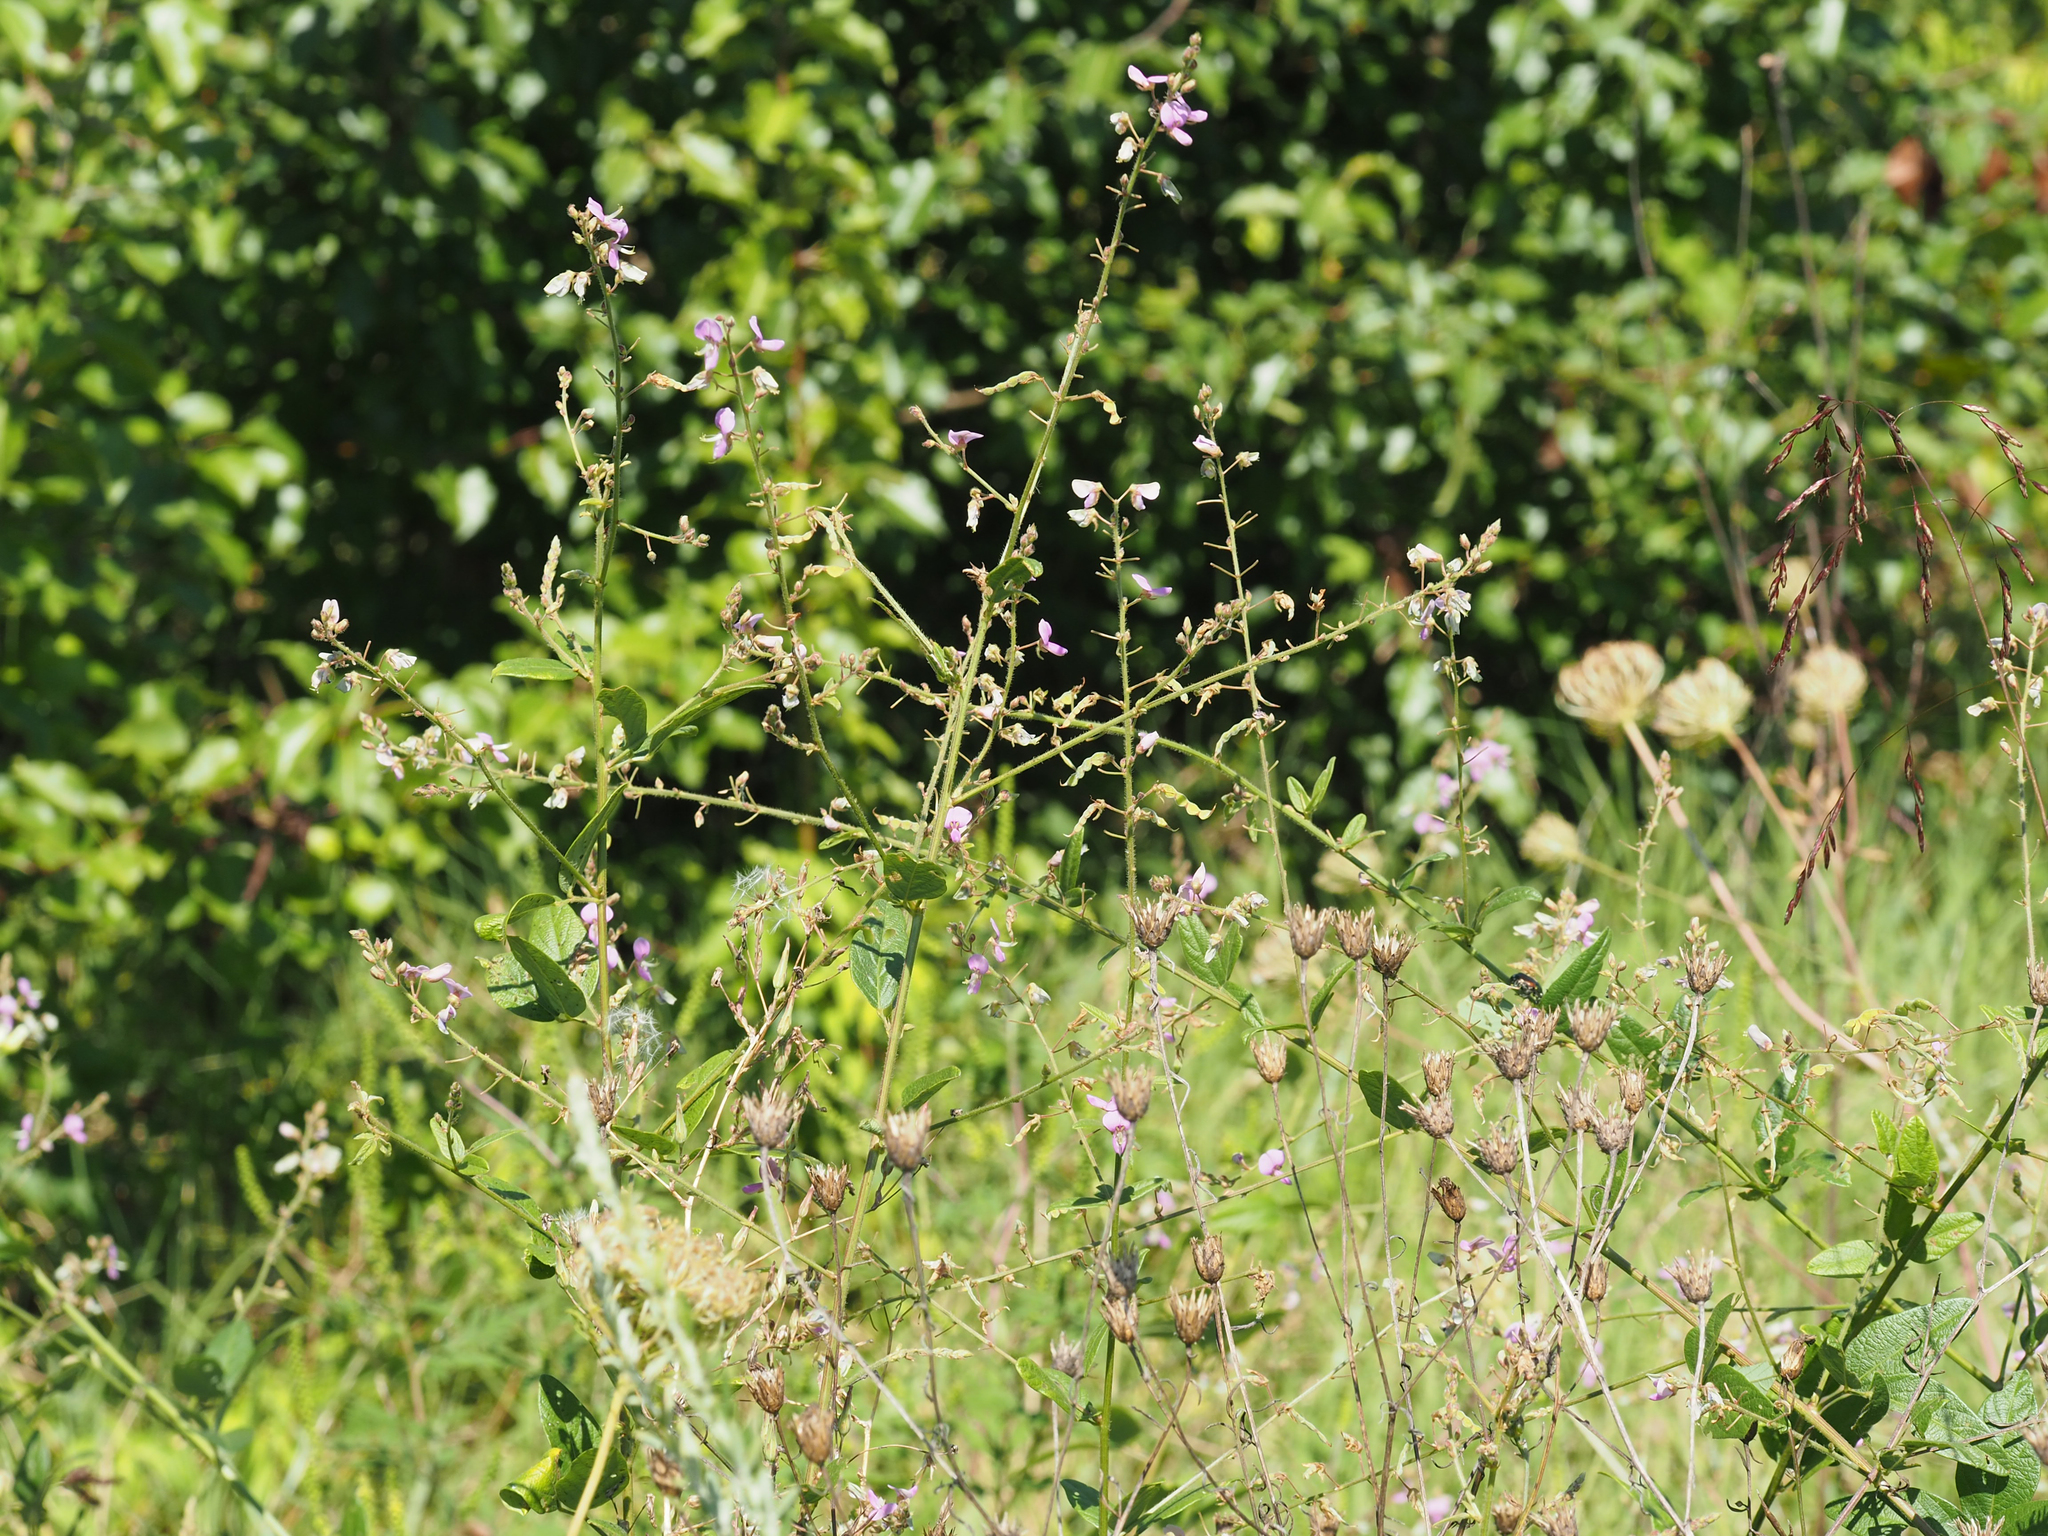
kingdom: Plantae
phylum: Tracheophyta
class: Magnoliopsida
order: Fabales
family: Fabaceae
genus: Desmodium
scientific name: Desmodium glabellum
